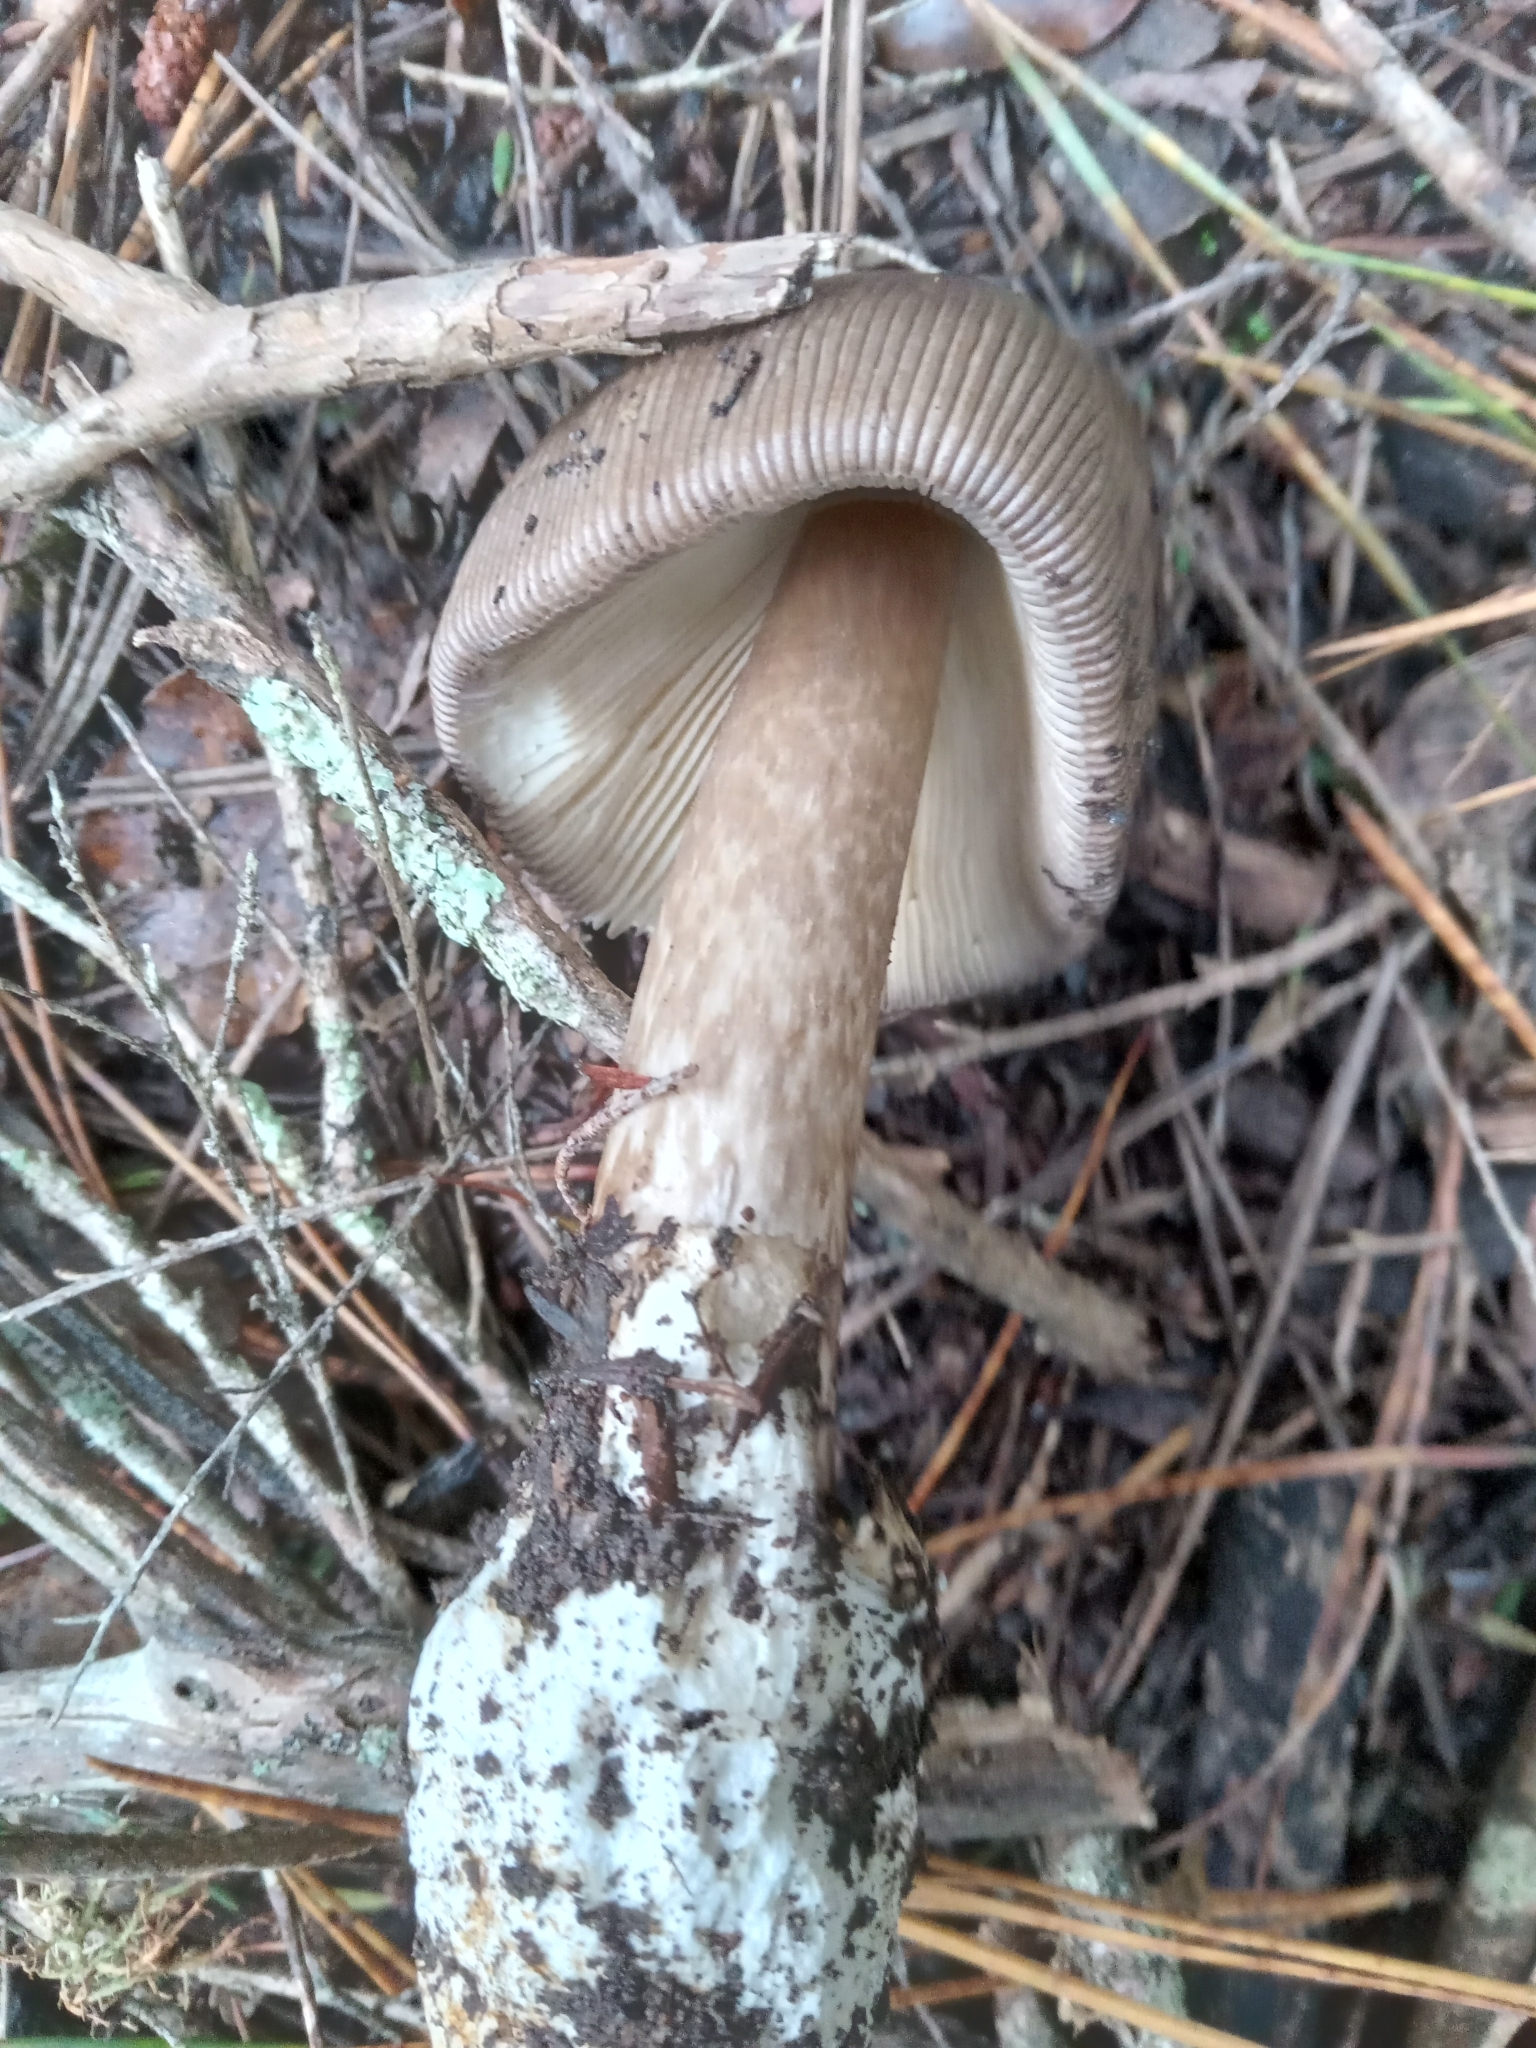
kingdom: Fungi
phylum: Basidiomycota
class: Agaricomycetes
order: Agaricales
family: Amanitaceae
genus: Amanita
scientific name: Amanita pekeoides
